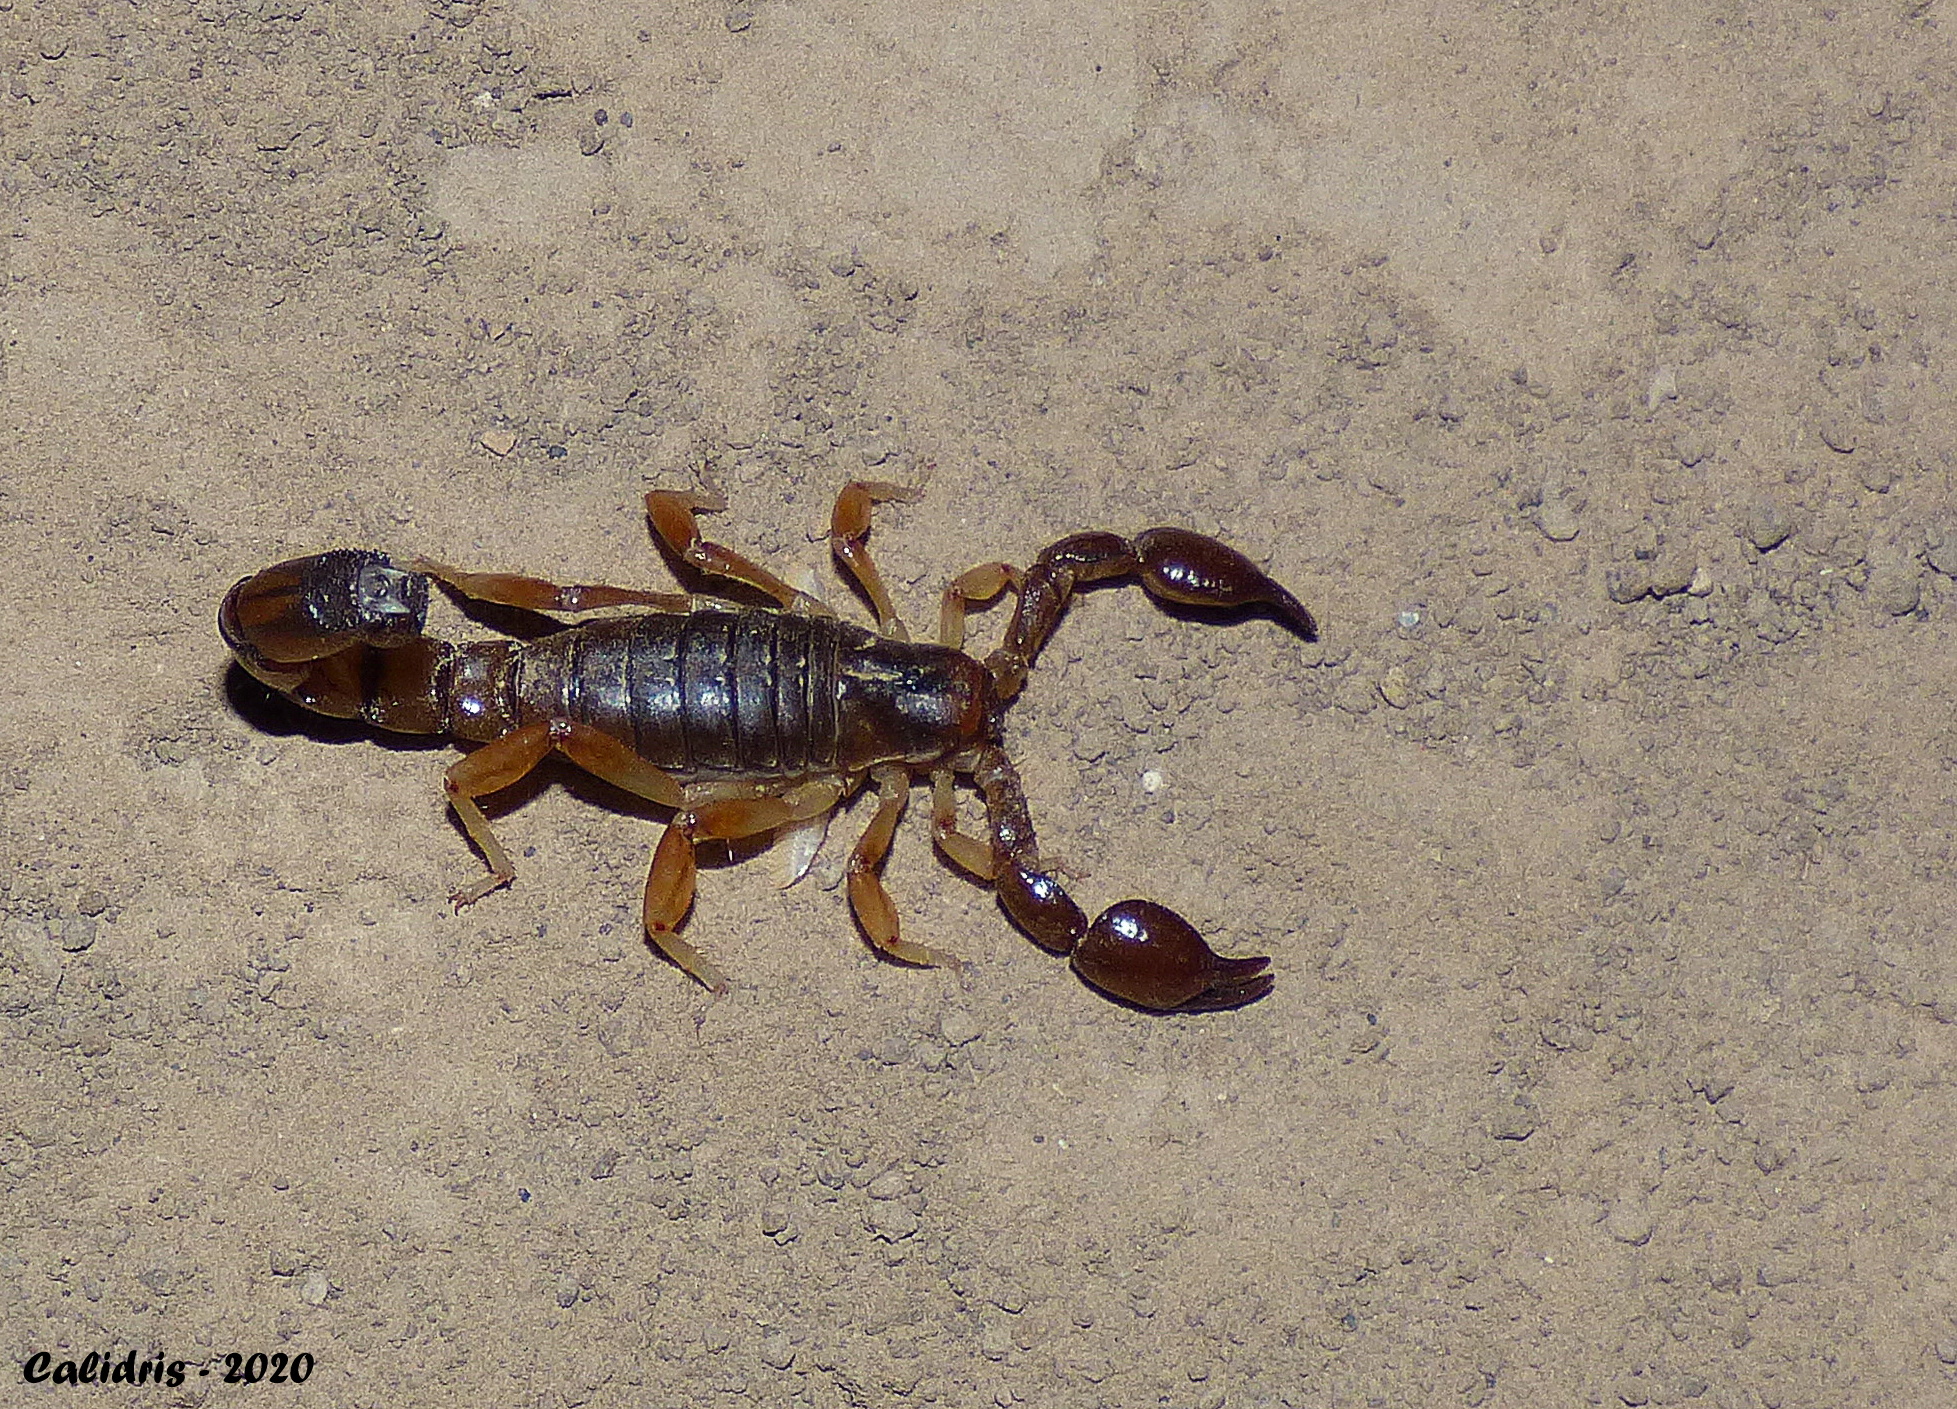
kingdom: Animalia
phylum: Arthropoda
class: Arachnida
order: Scorpiones
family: Bothriuridae
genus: Bothriurus
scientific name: Bothriurus bonariensis
